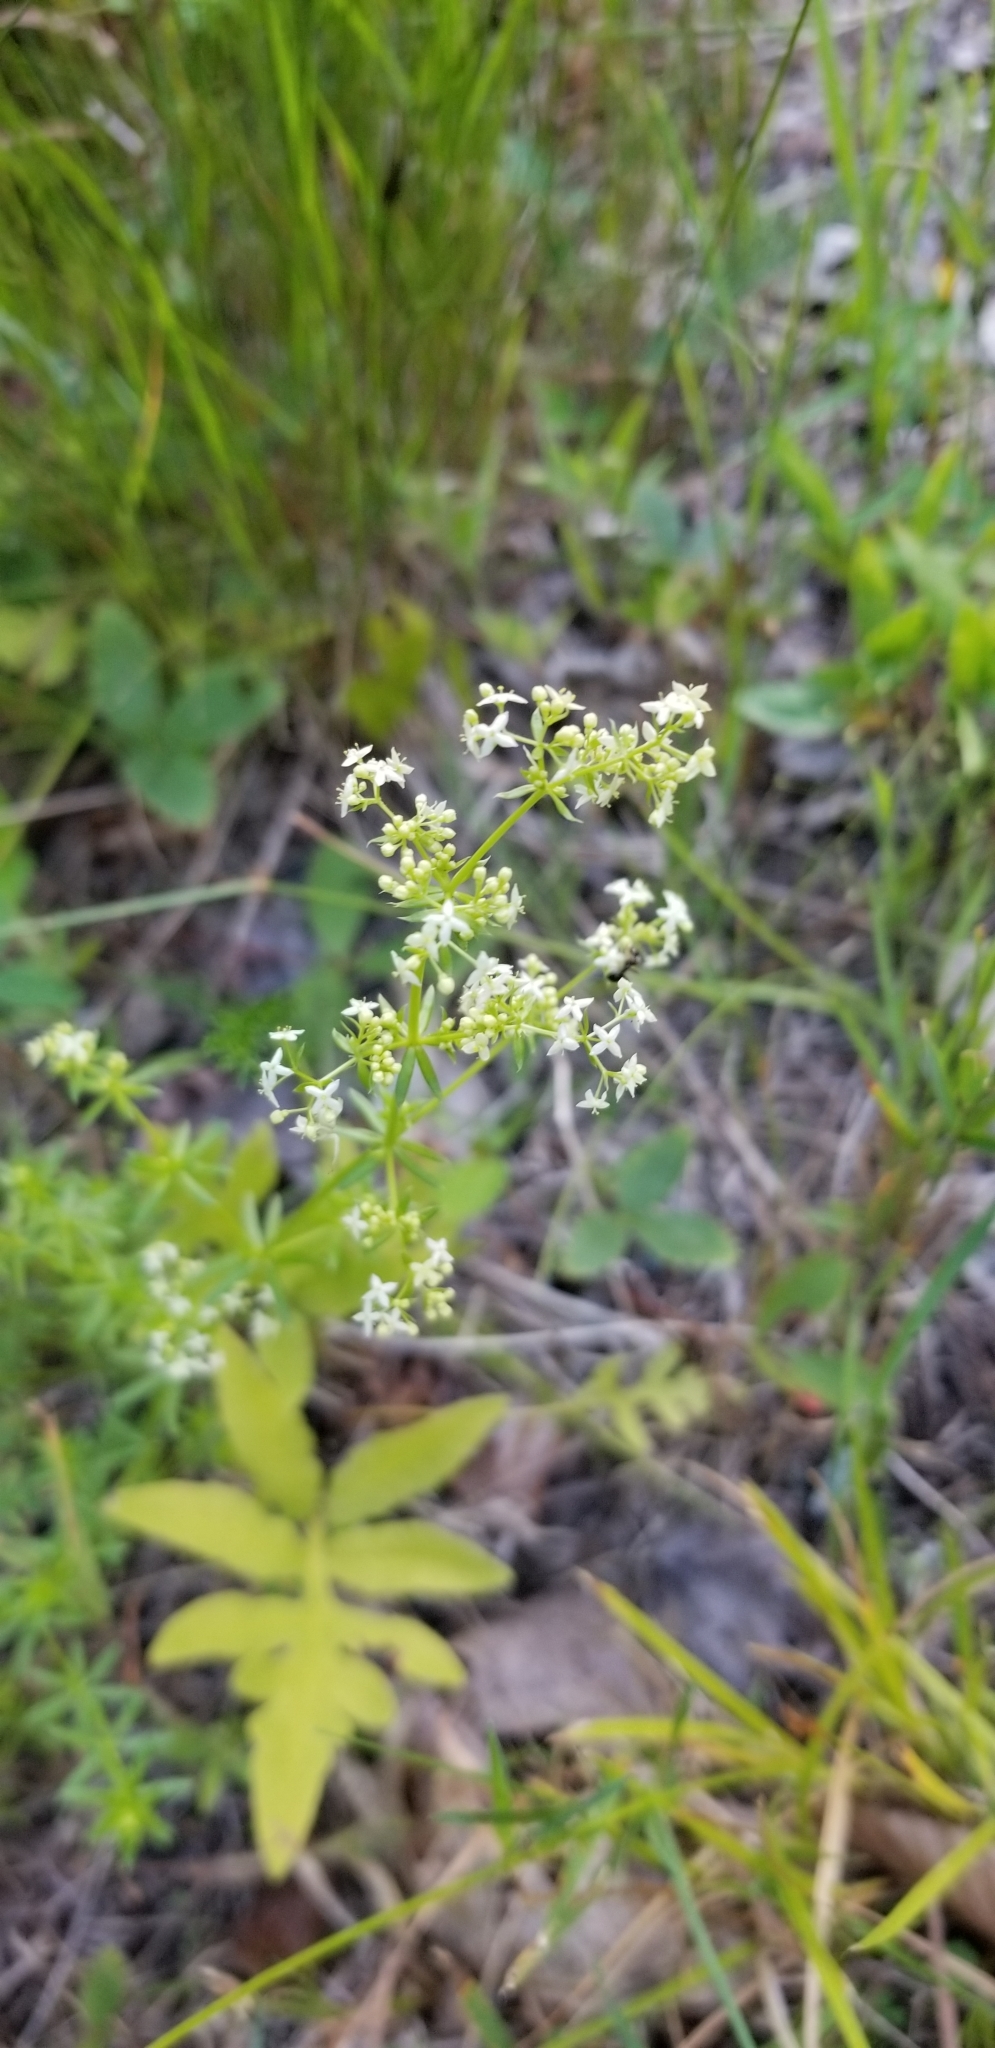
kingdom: Plantae
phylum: Tracheophyta
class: Magnoliopsida
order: Gentianales
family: Rubiaceae
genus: Galium
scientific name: Galium mollugo
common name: Hedge bedstraw
